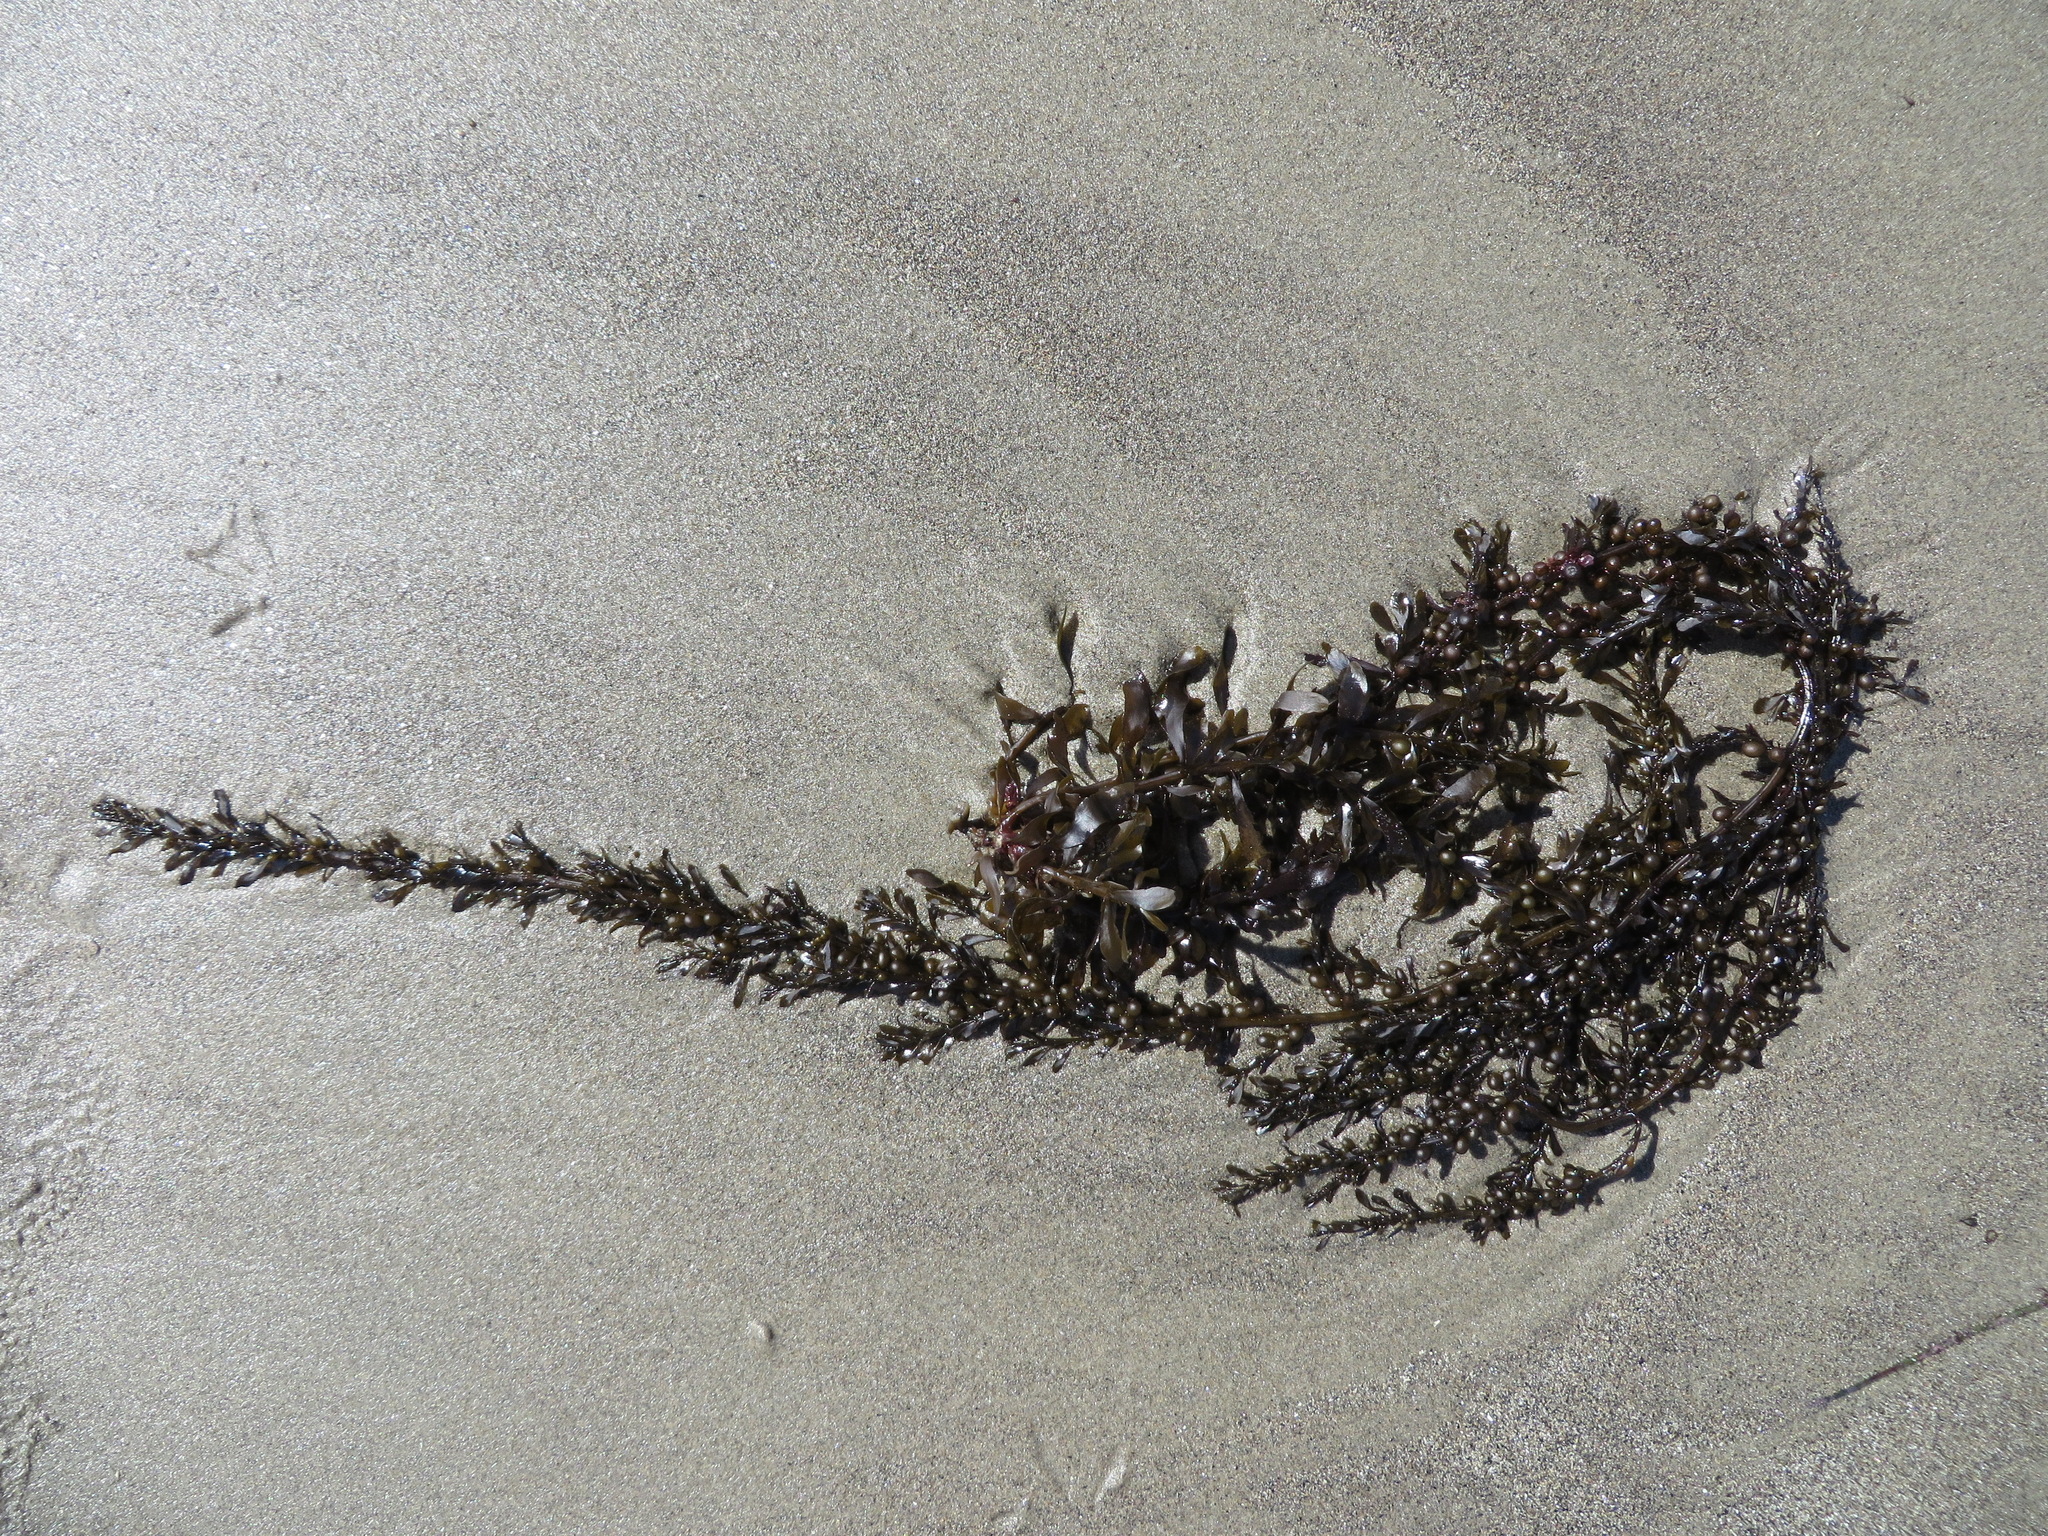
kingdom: Chromista
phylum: Ochrophyta
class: Phaeophyceae
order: Fucales
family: Sargassaceae
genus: Sargassum
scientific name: Sargassum muticum
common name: Japweed
